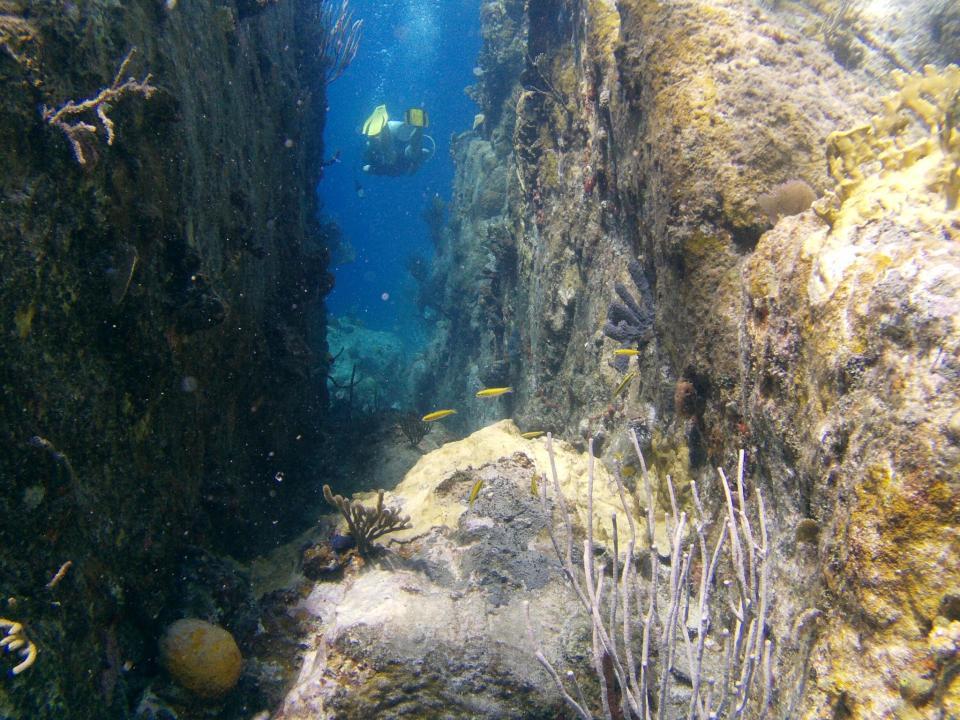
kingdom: Animalia
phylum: Chordata
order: Perciformes
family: Labridae
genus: Thalassoma
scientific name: Thalassoma bifasciatum
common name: Bluehead wrasse
